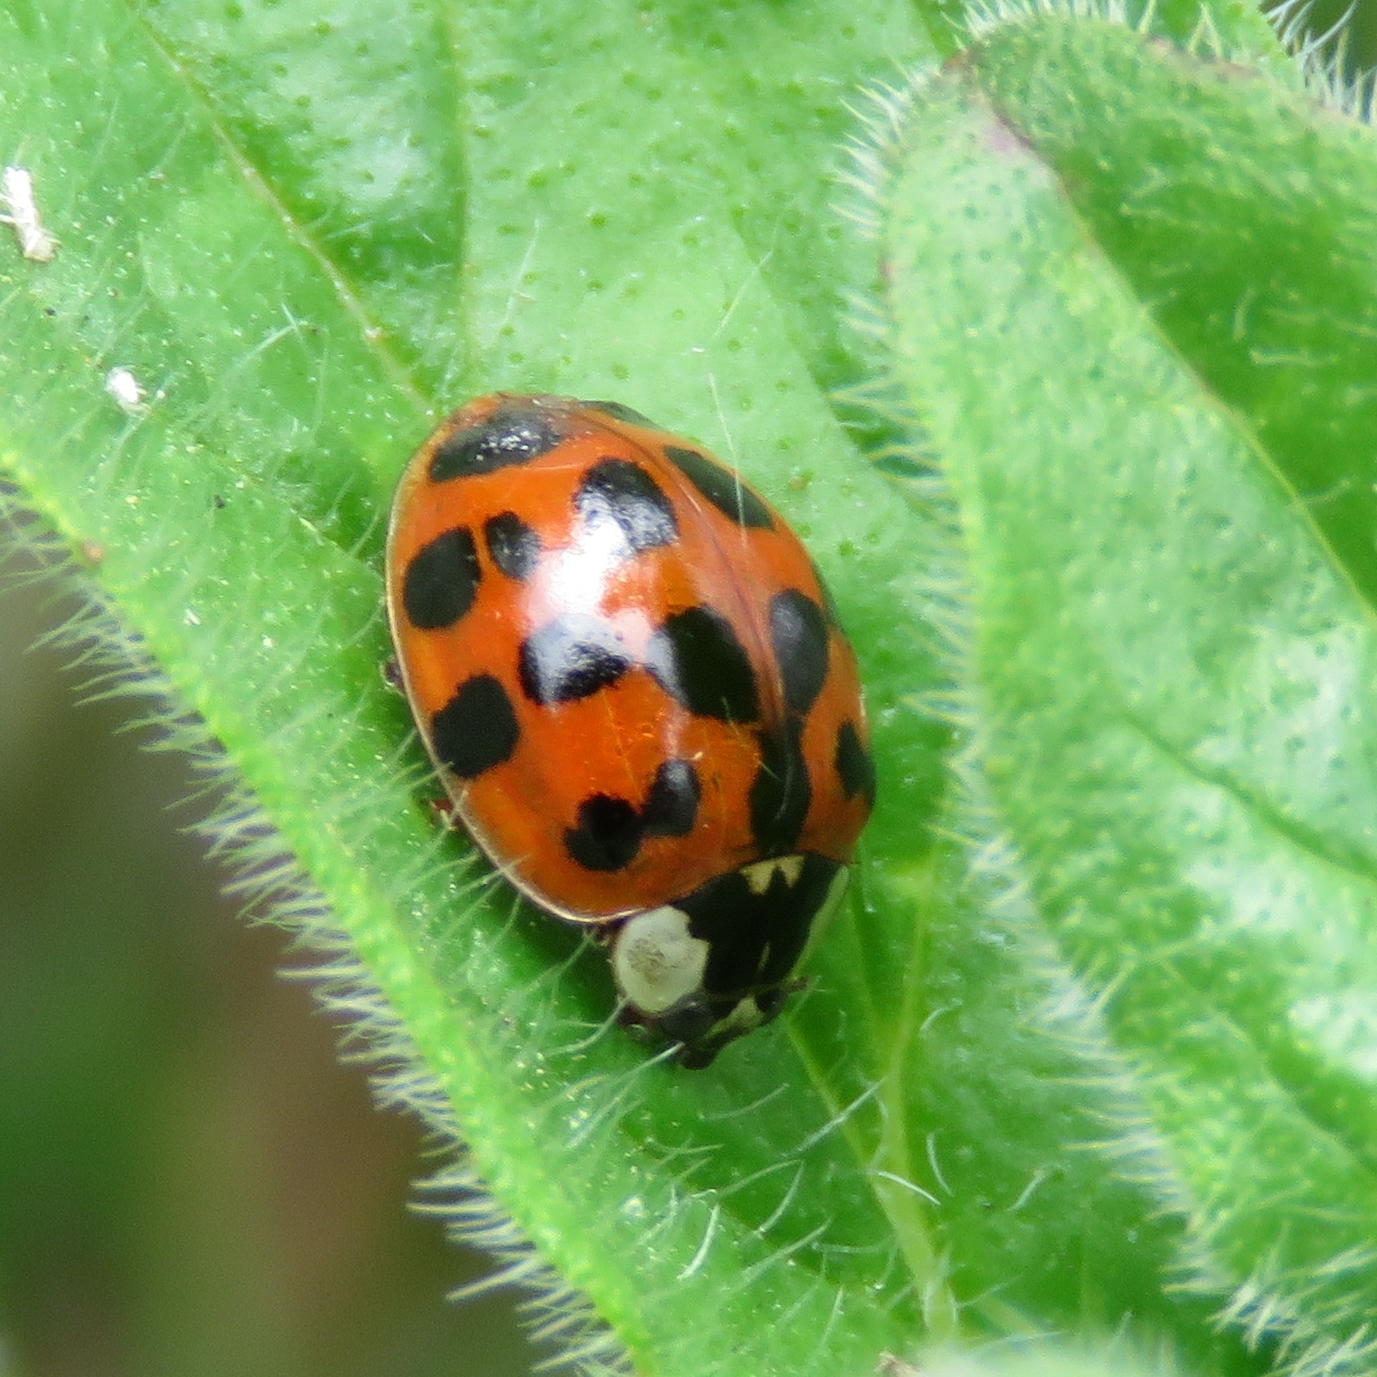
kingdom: Animalia
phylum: Arthropoda
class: Insecta
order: Coleoptera
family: Coccinellidae
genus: Harmonia
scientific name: Harmonia axyridis
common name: Harlequin ladybird
